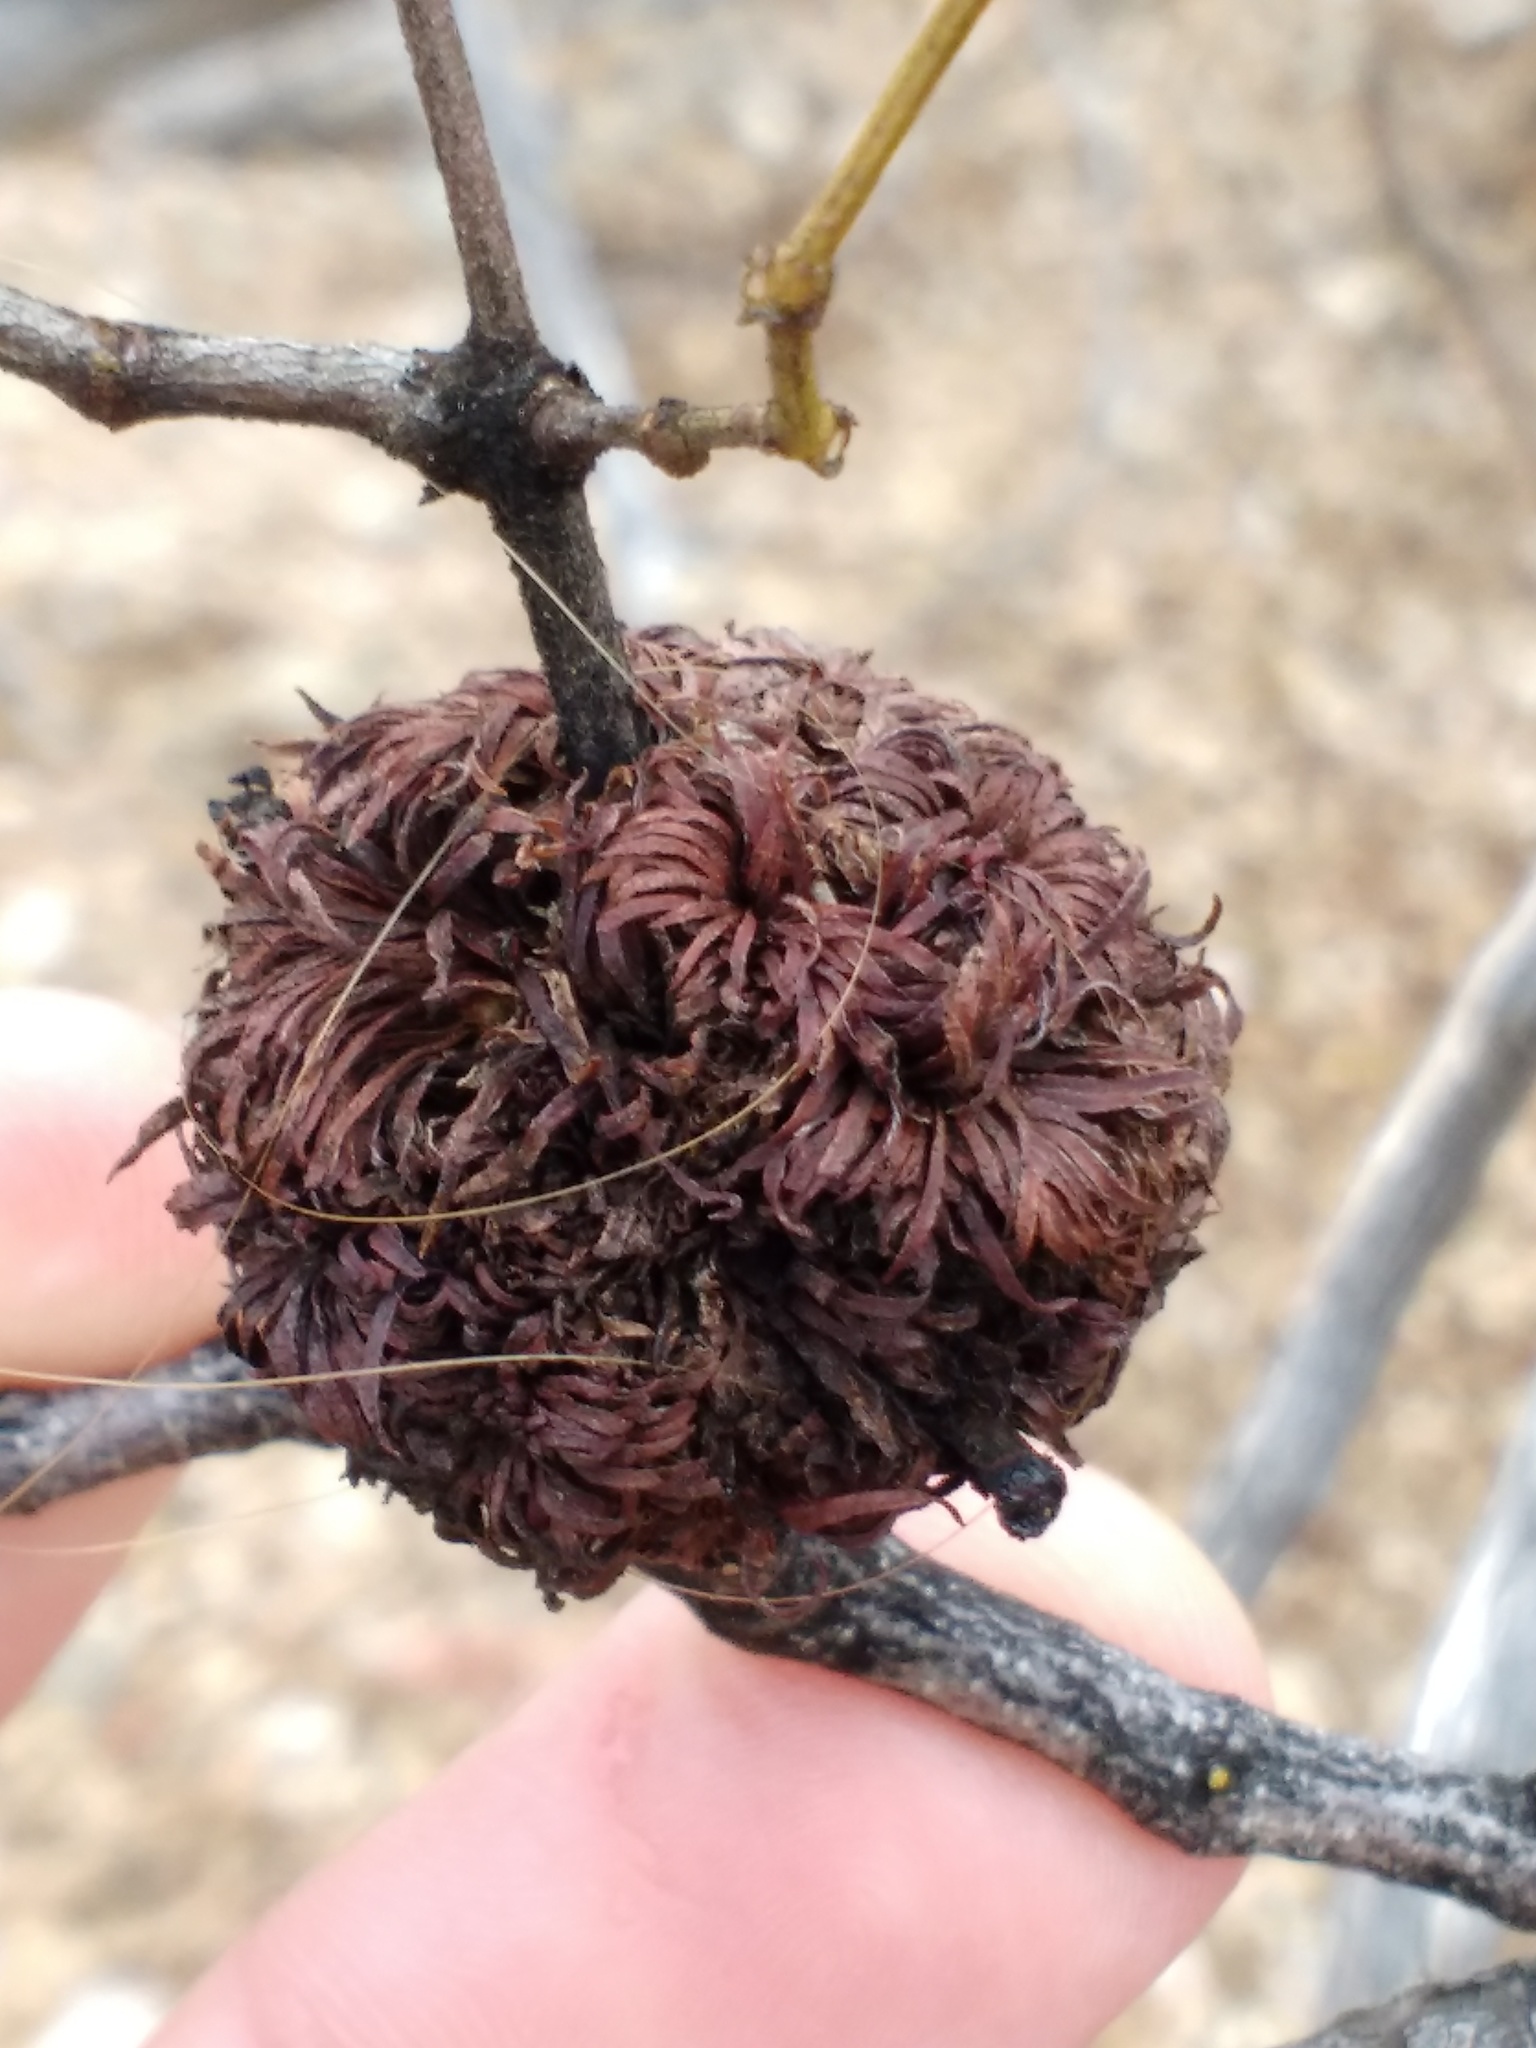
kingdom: Animalia
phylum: Arthropoda
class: Insecta
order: Diptera
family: Cecidomyiidae
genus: Asphondylia
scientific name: Asphondylia auripila
